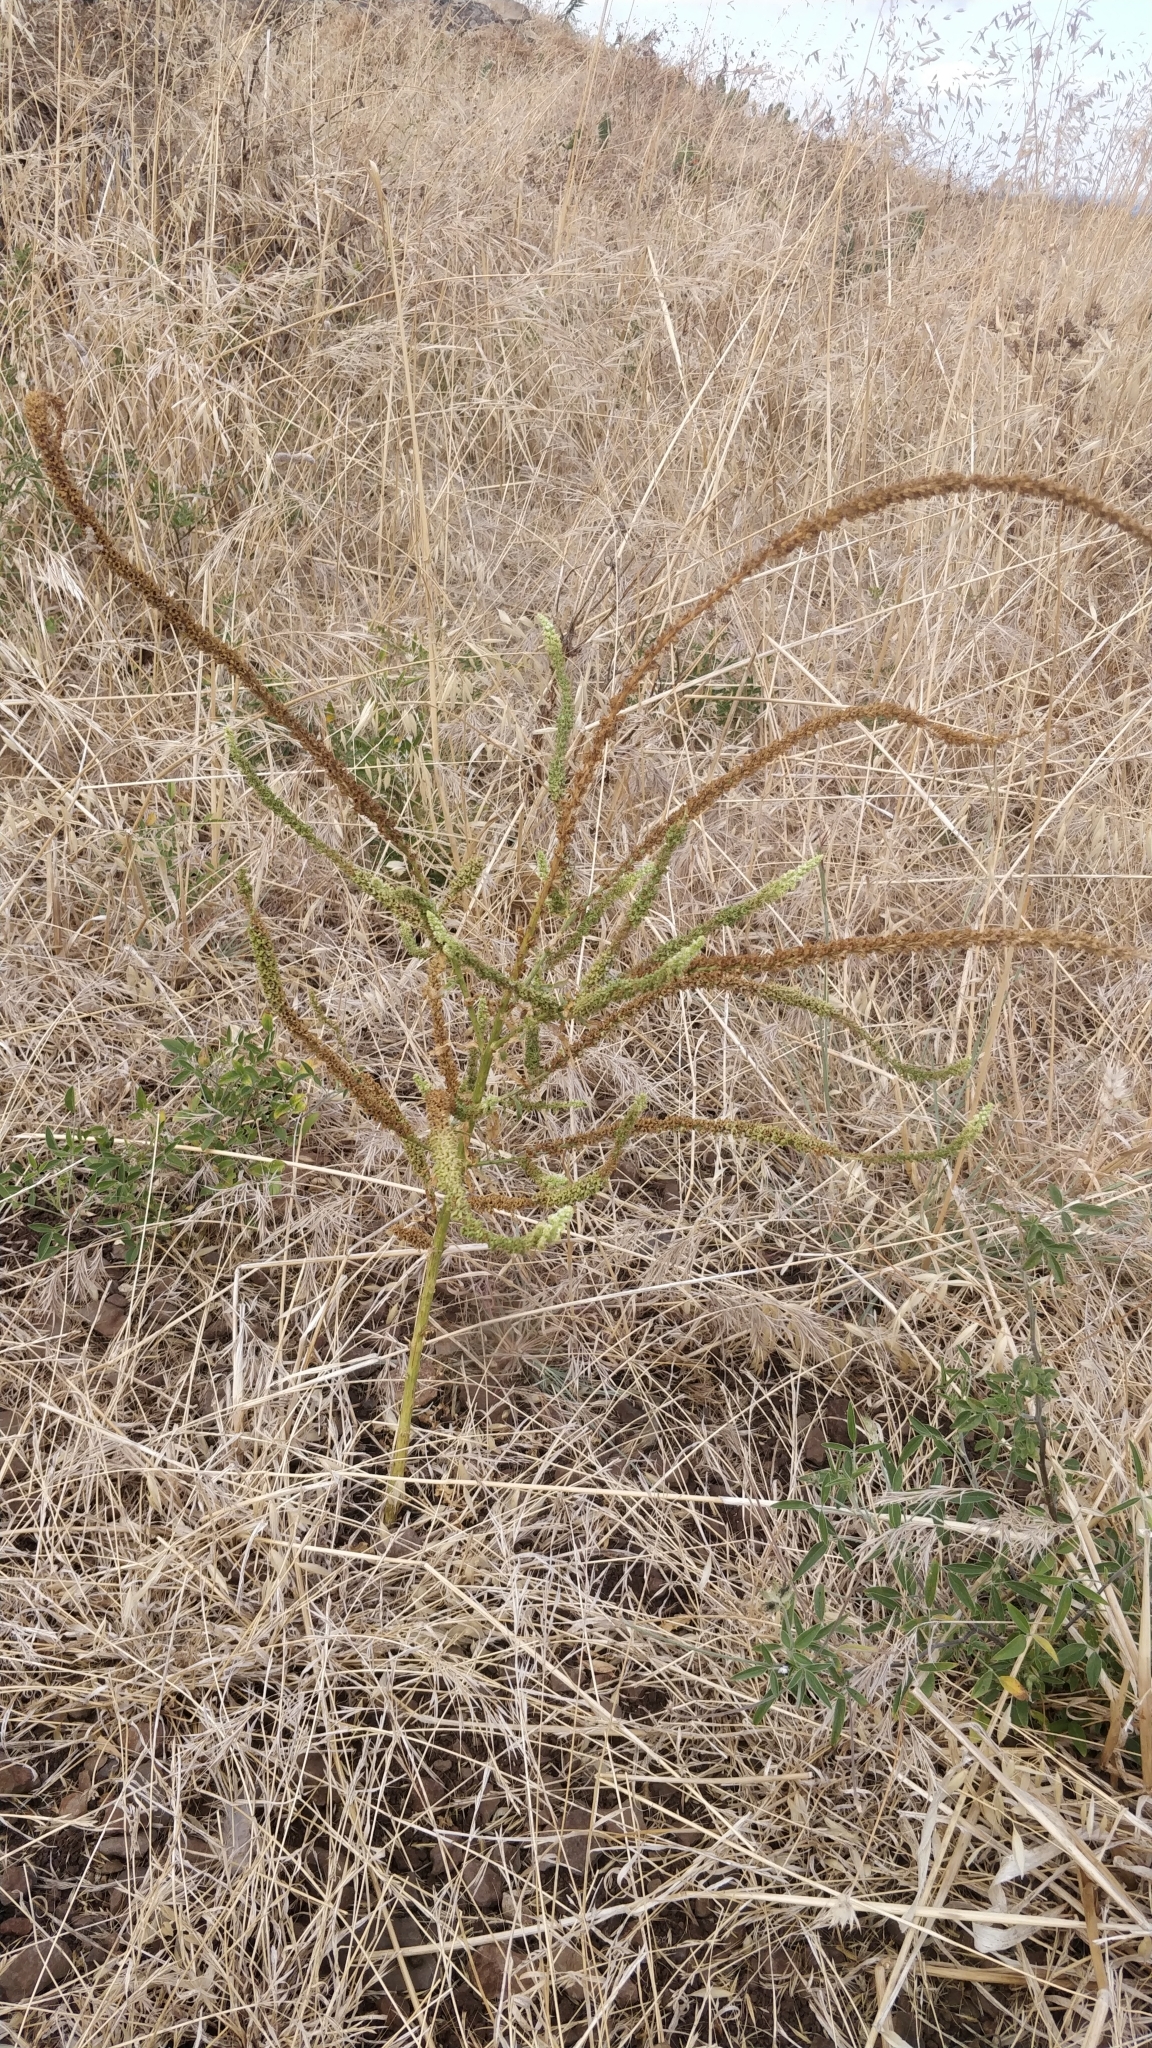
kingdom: Plantae
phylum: Tracheophyta
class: Magnoliopsida
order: Brassicales
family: Resedaceae
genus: Reseda
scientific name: Reseda luteola
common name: Weld
